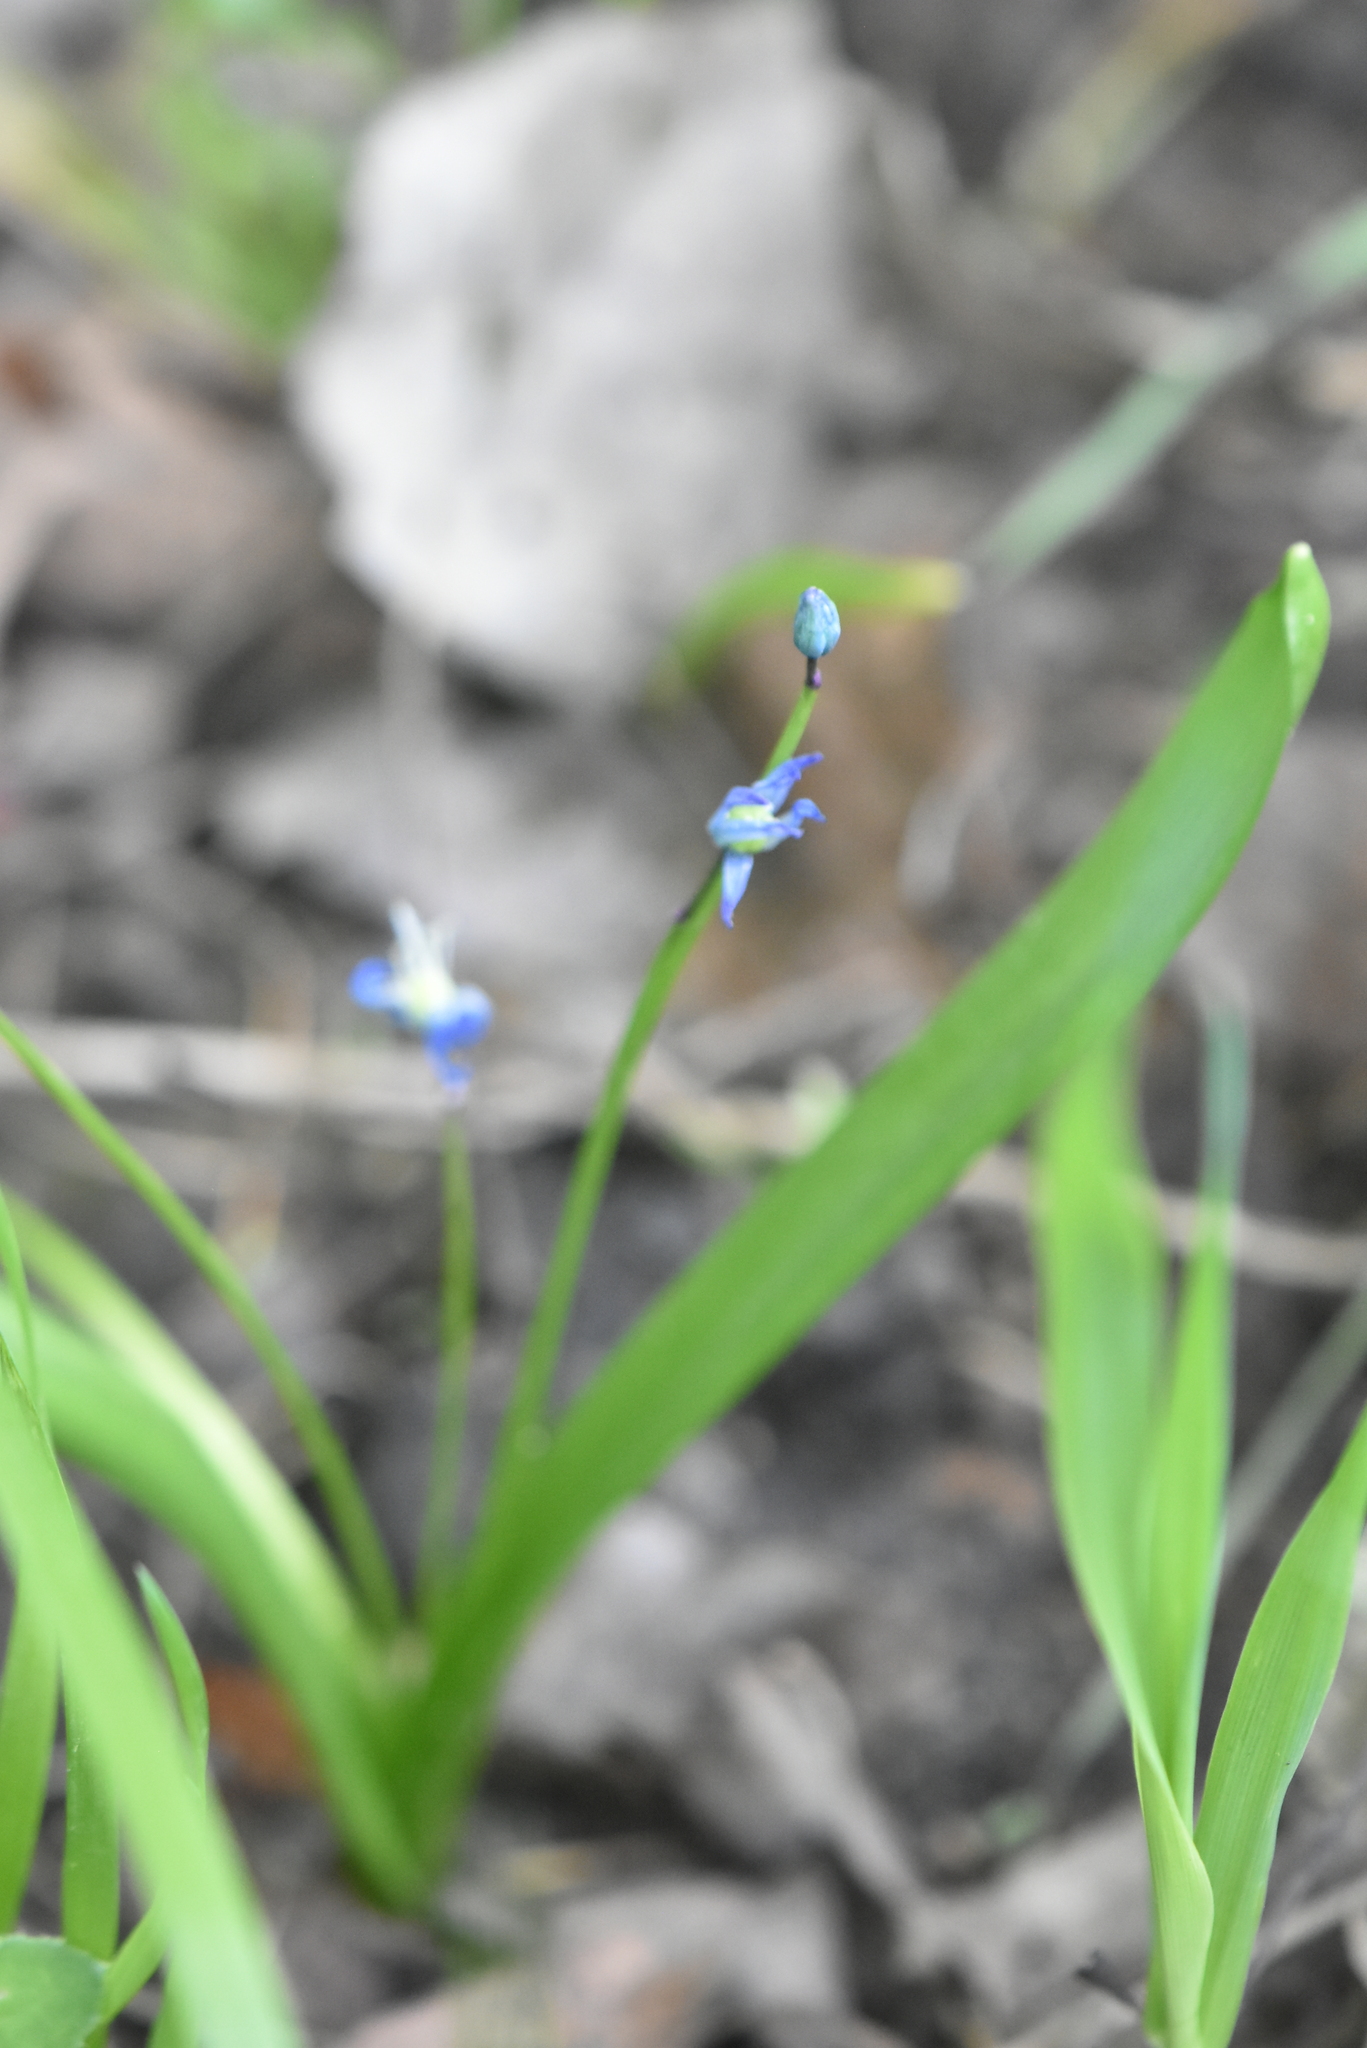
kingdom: Plantae
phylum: Tracheophyta
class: Liliopsida
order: Asparagales
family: Asparagaceae
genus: Scilla
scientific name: Scilla siberica
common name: Siberian squill
